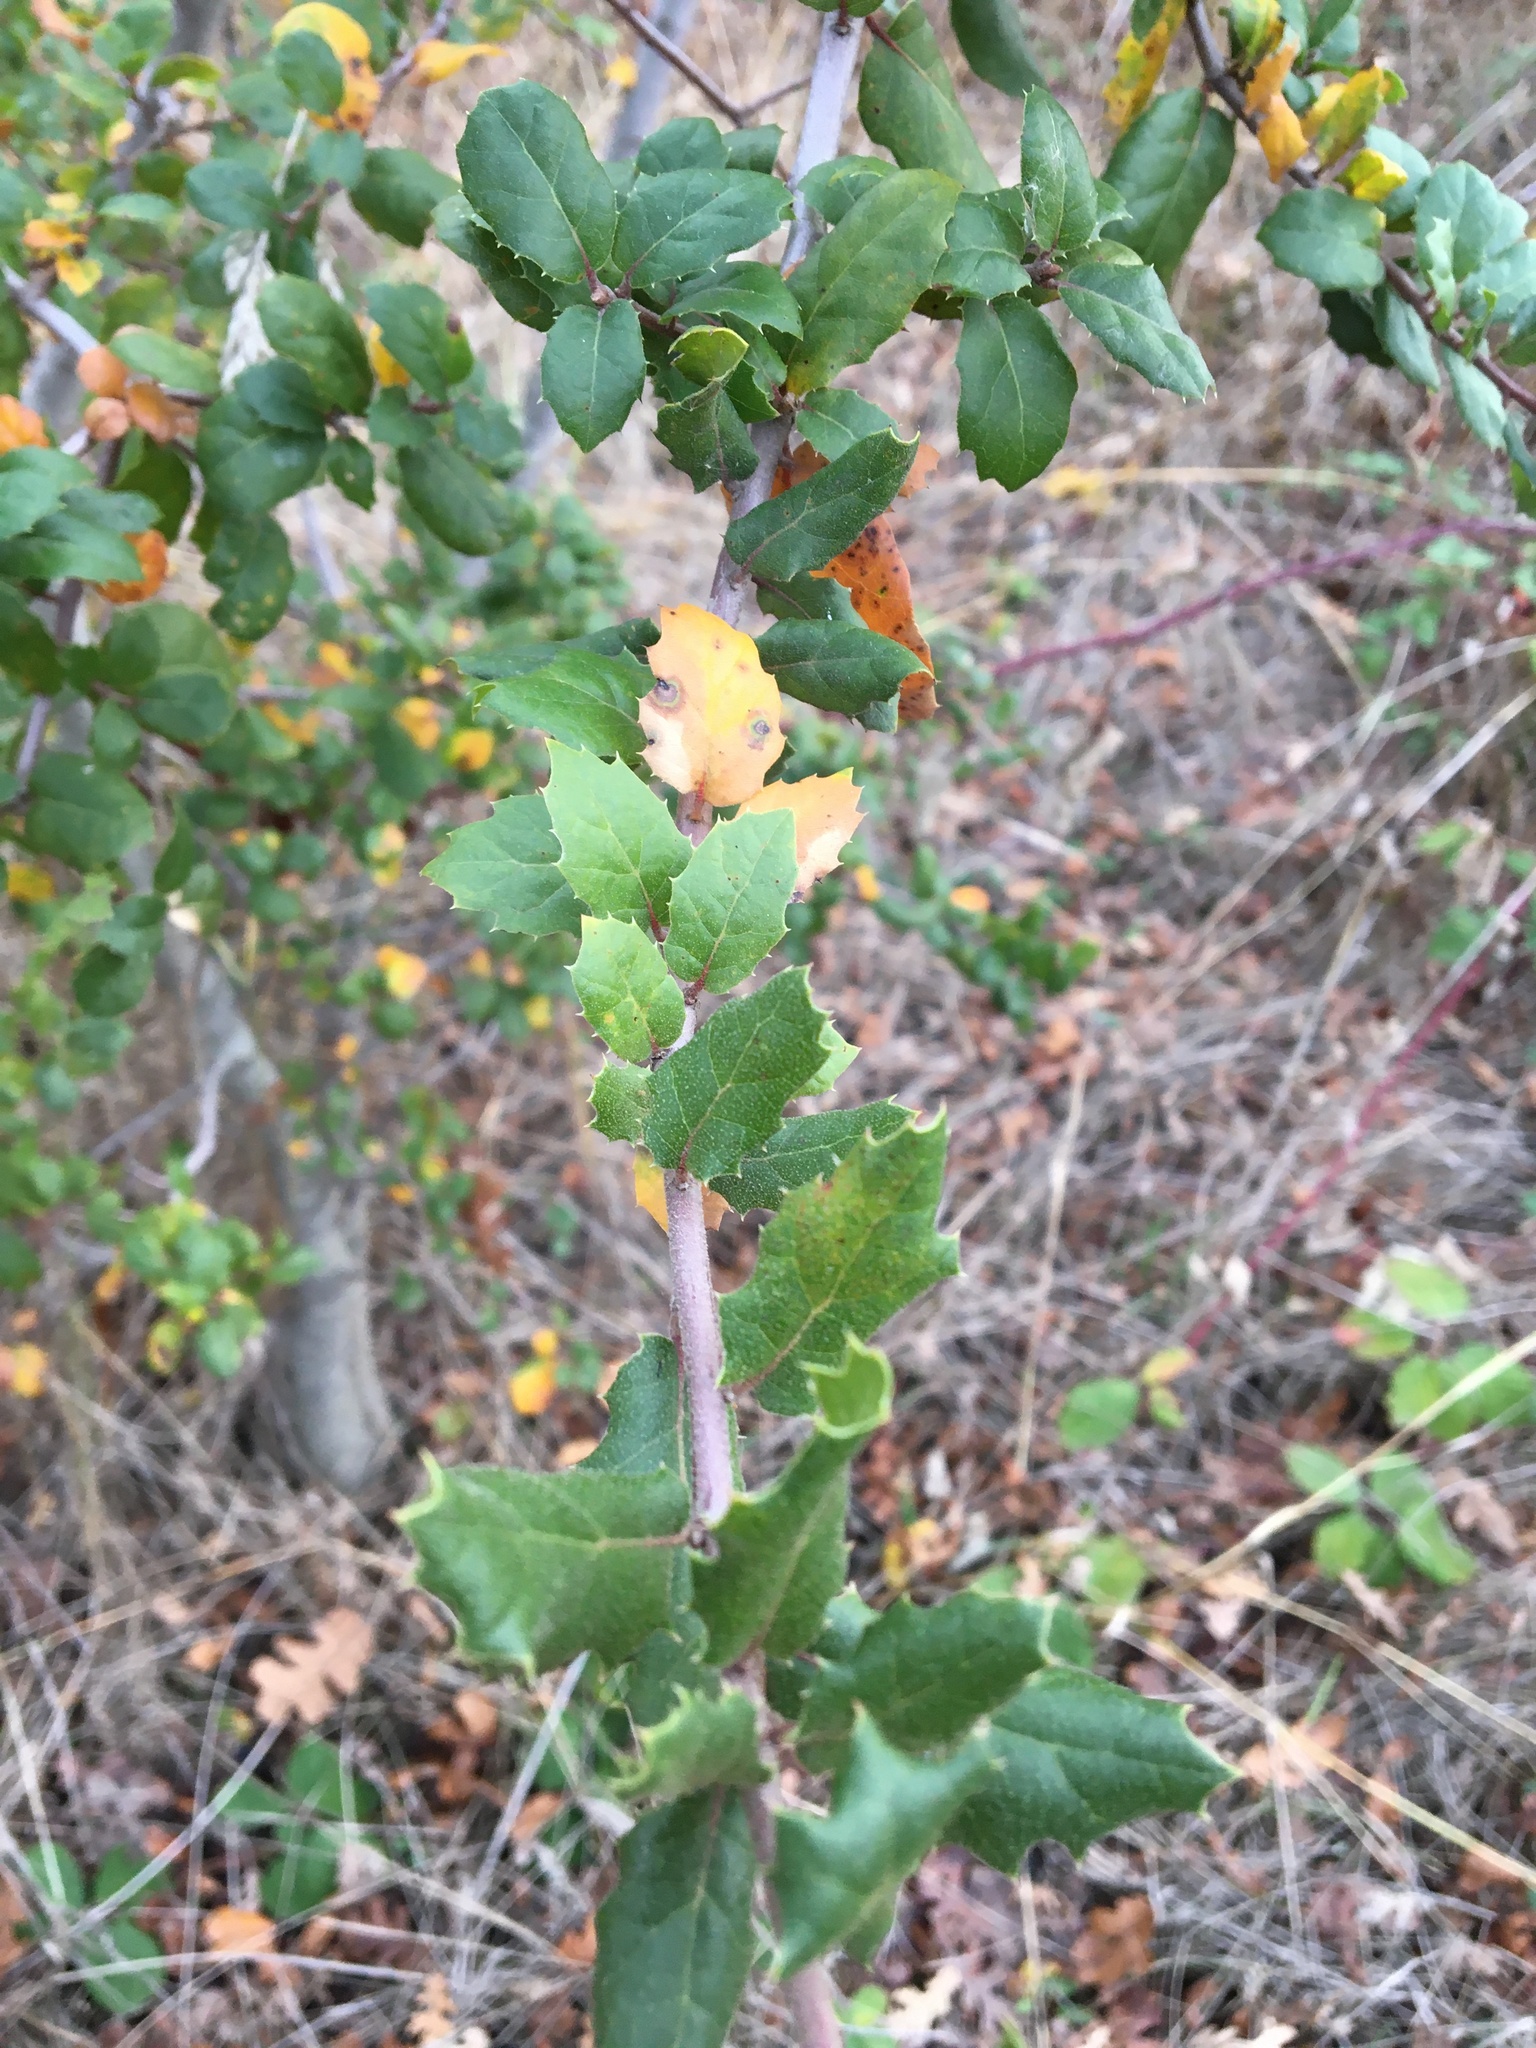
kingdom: Plantae
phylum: Tracheophyta
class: Magnoliopsida
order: Fagales
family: Fagaceae
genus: Quercus
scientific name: Quercus agrifolia
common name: California live oak
